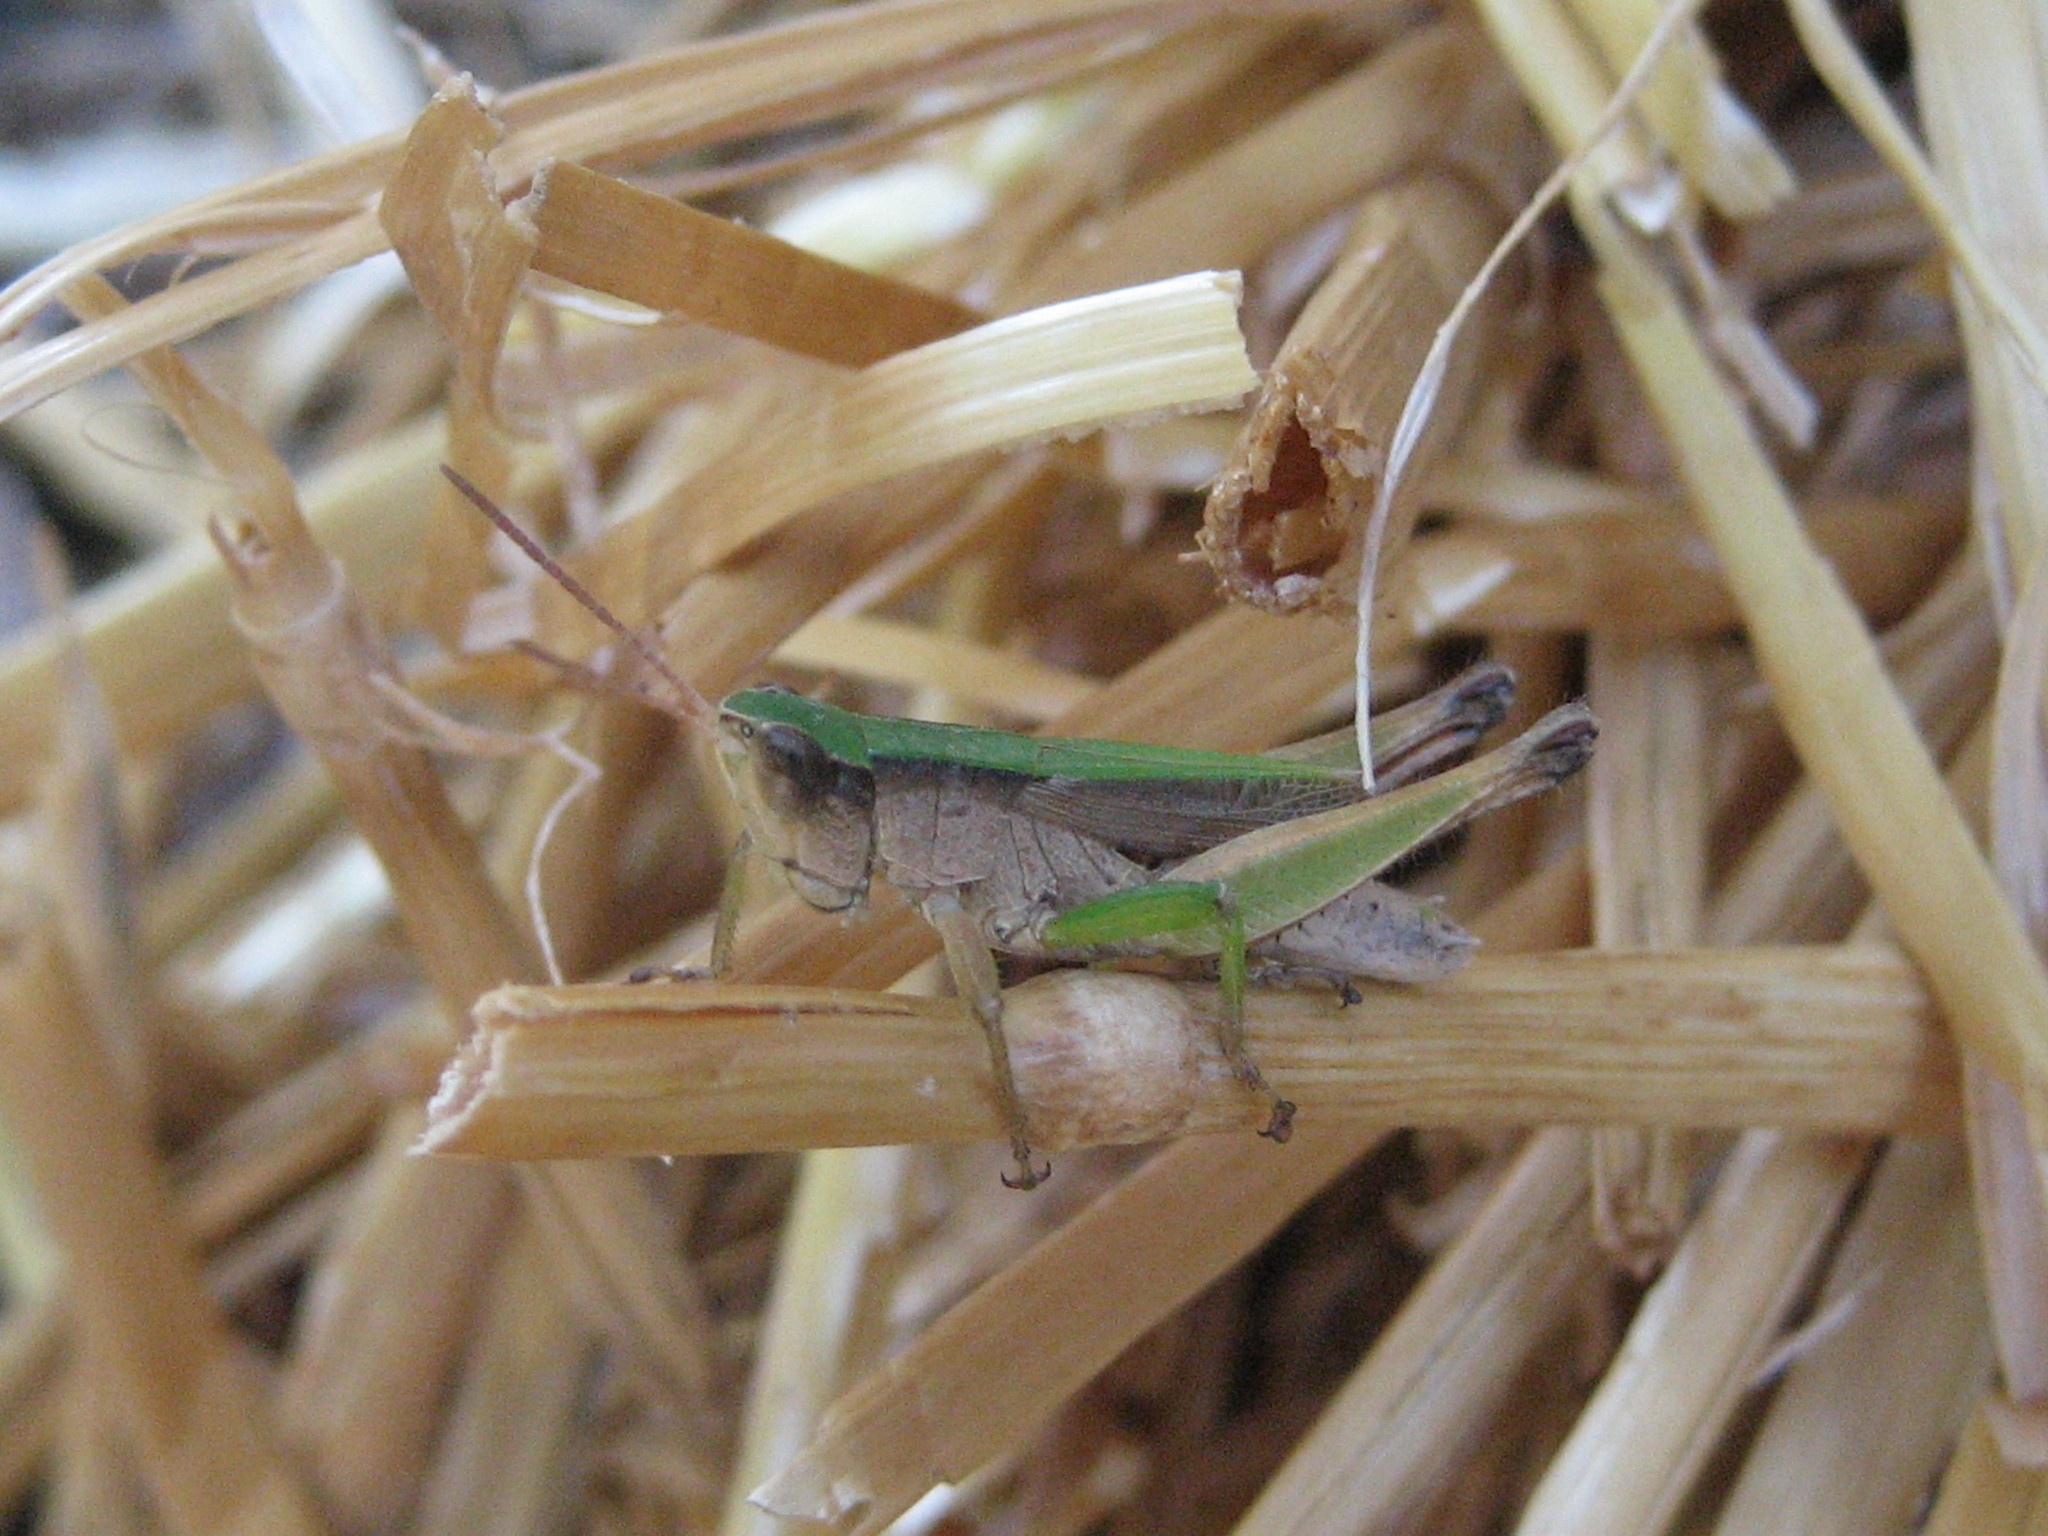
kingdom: Animalia
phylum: Arthropoda
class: Insecta
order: Orthoptera
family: Acrididae
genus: Dichromorpha
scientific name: Dichromorpha viridis
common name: Short-winged green grasshopper
